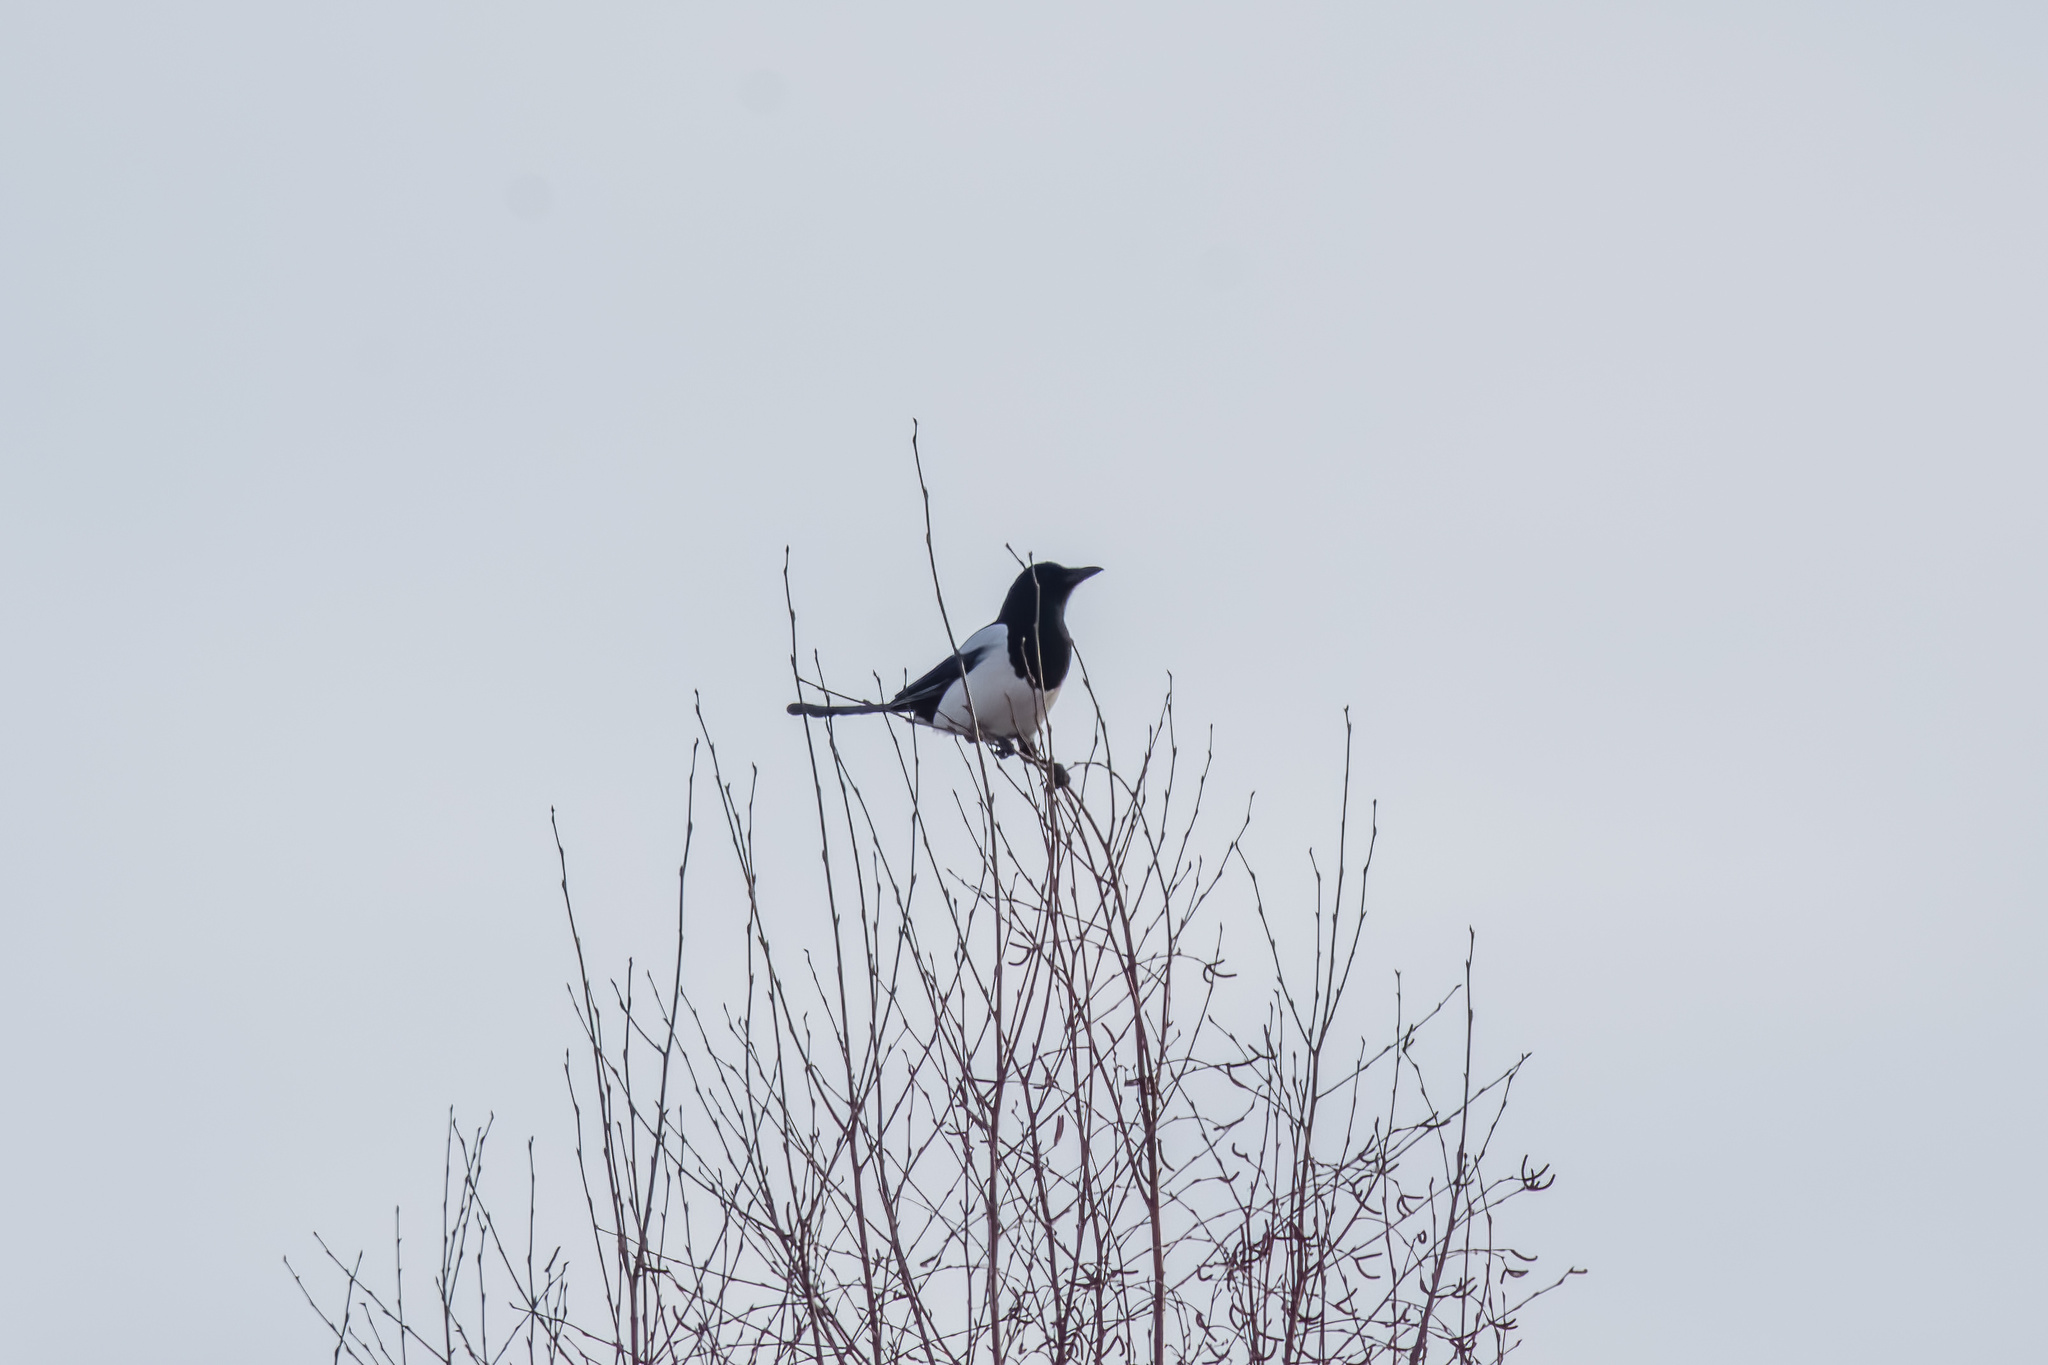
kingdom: Animalia
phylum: Chordata
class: Aves
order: Passeriformes
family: Corvidae
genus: Pica
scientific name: Pica pica
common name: Eurasian magpie
